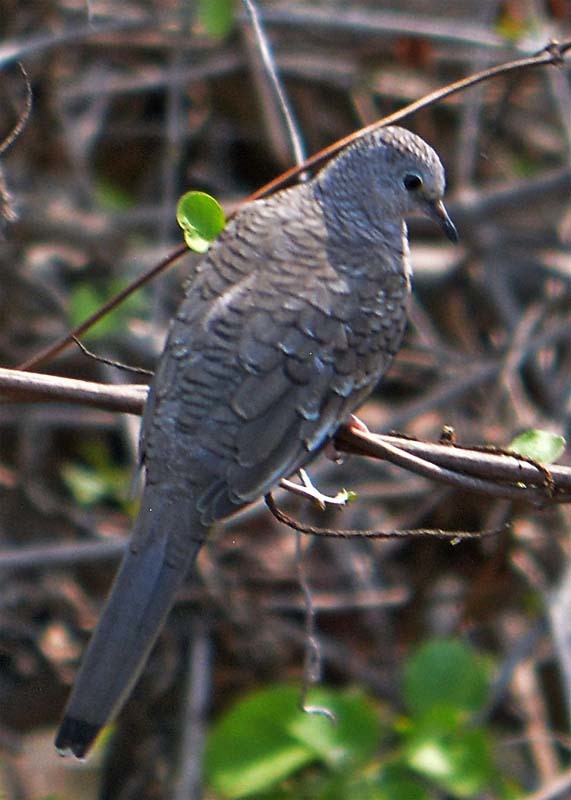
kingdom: Animalia
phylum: Chordata
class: Aves
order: Columbiformes
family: Columbidae
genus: Columbina
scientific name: Columbina inca
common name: Inca dove
